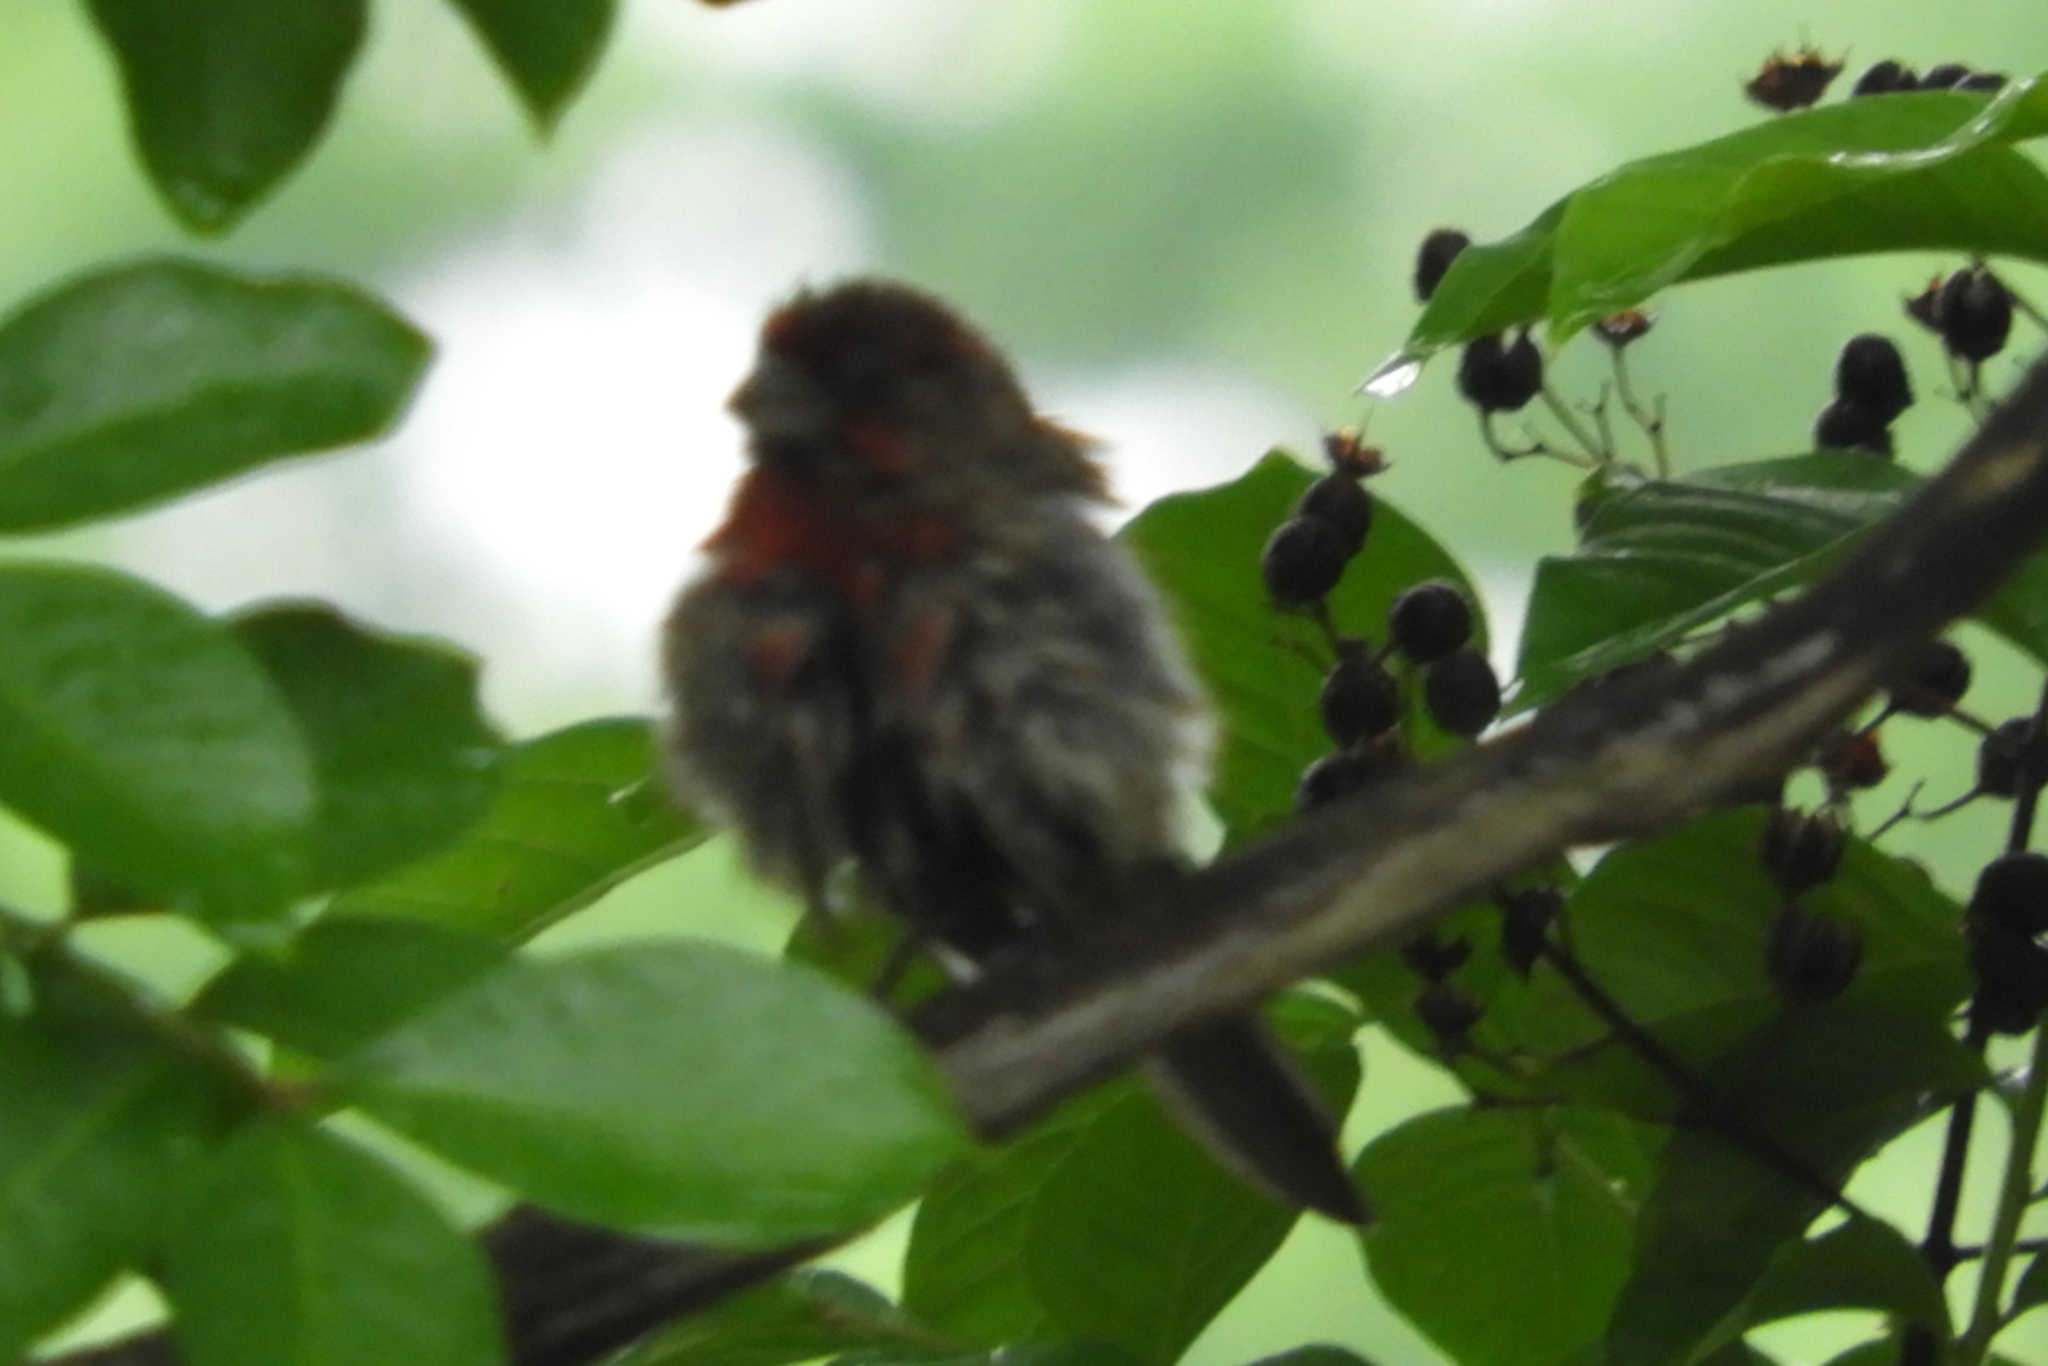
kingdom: Animalia
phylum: Chordata
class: Aves
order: Passeriformes
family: Fringillidae
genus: Haemorhous
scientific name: Haemorhous mexicanus
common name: House finch
